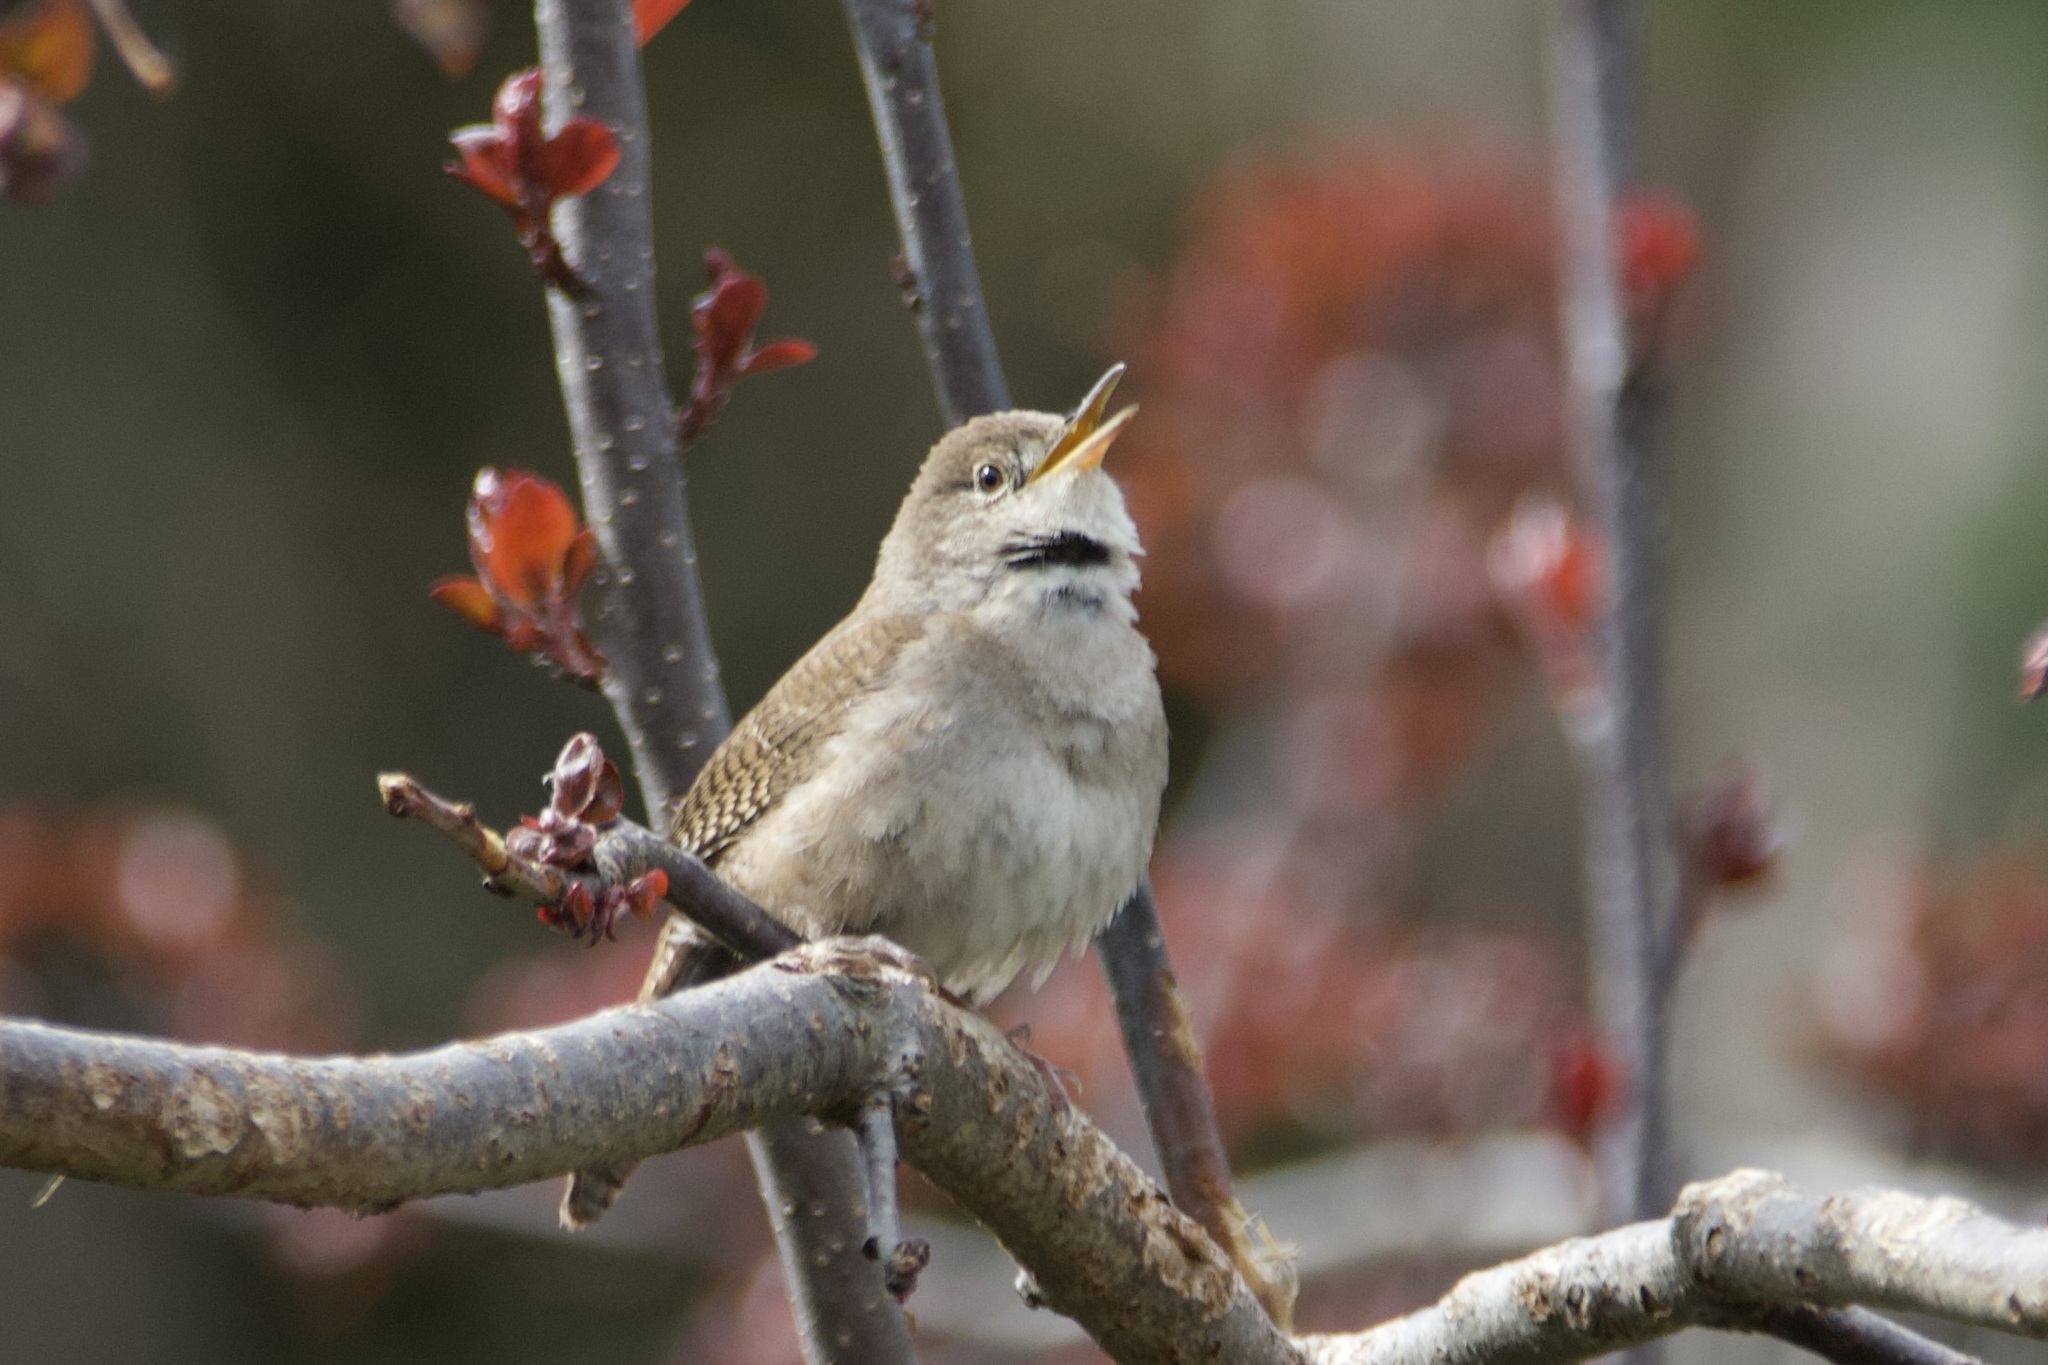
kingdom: Animalia
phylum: Chordata
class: Aves
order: Passeriformes
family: Troglodytidae
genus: Troglodytes
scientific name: Troglodytes aedon
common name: House wren
